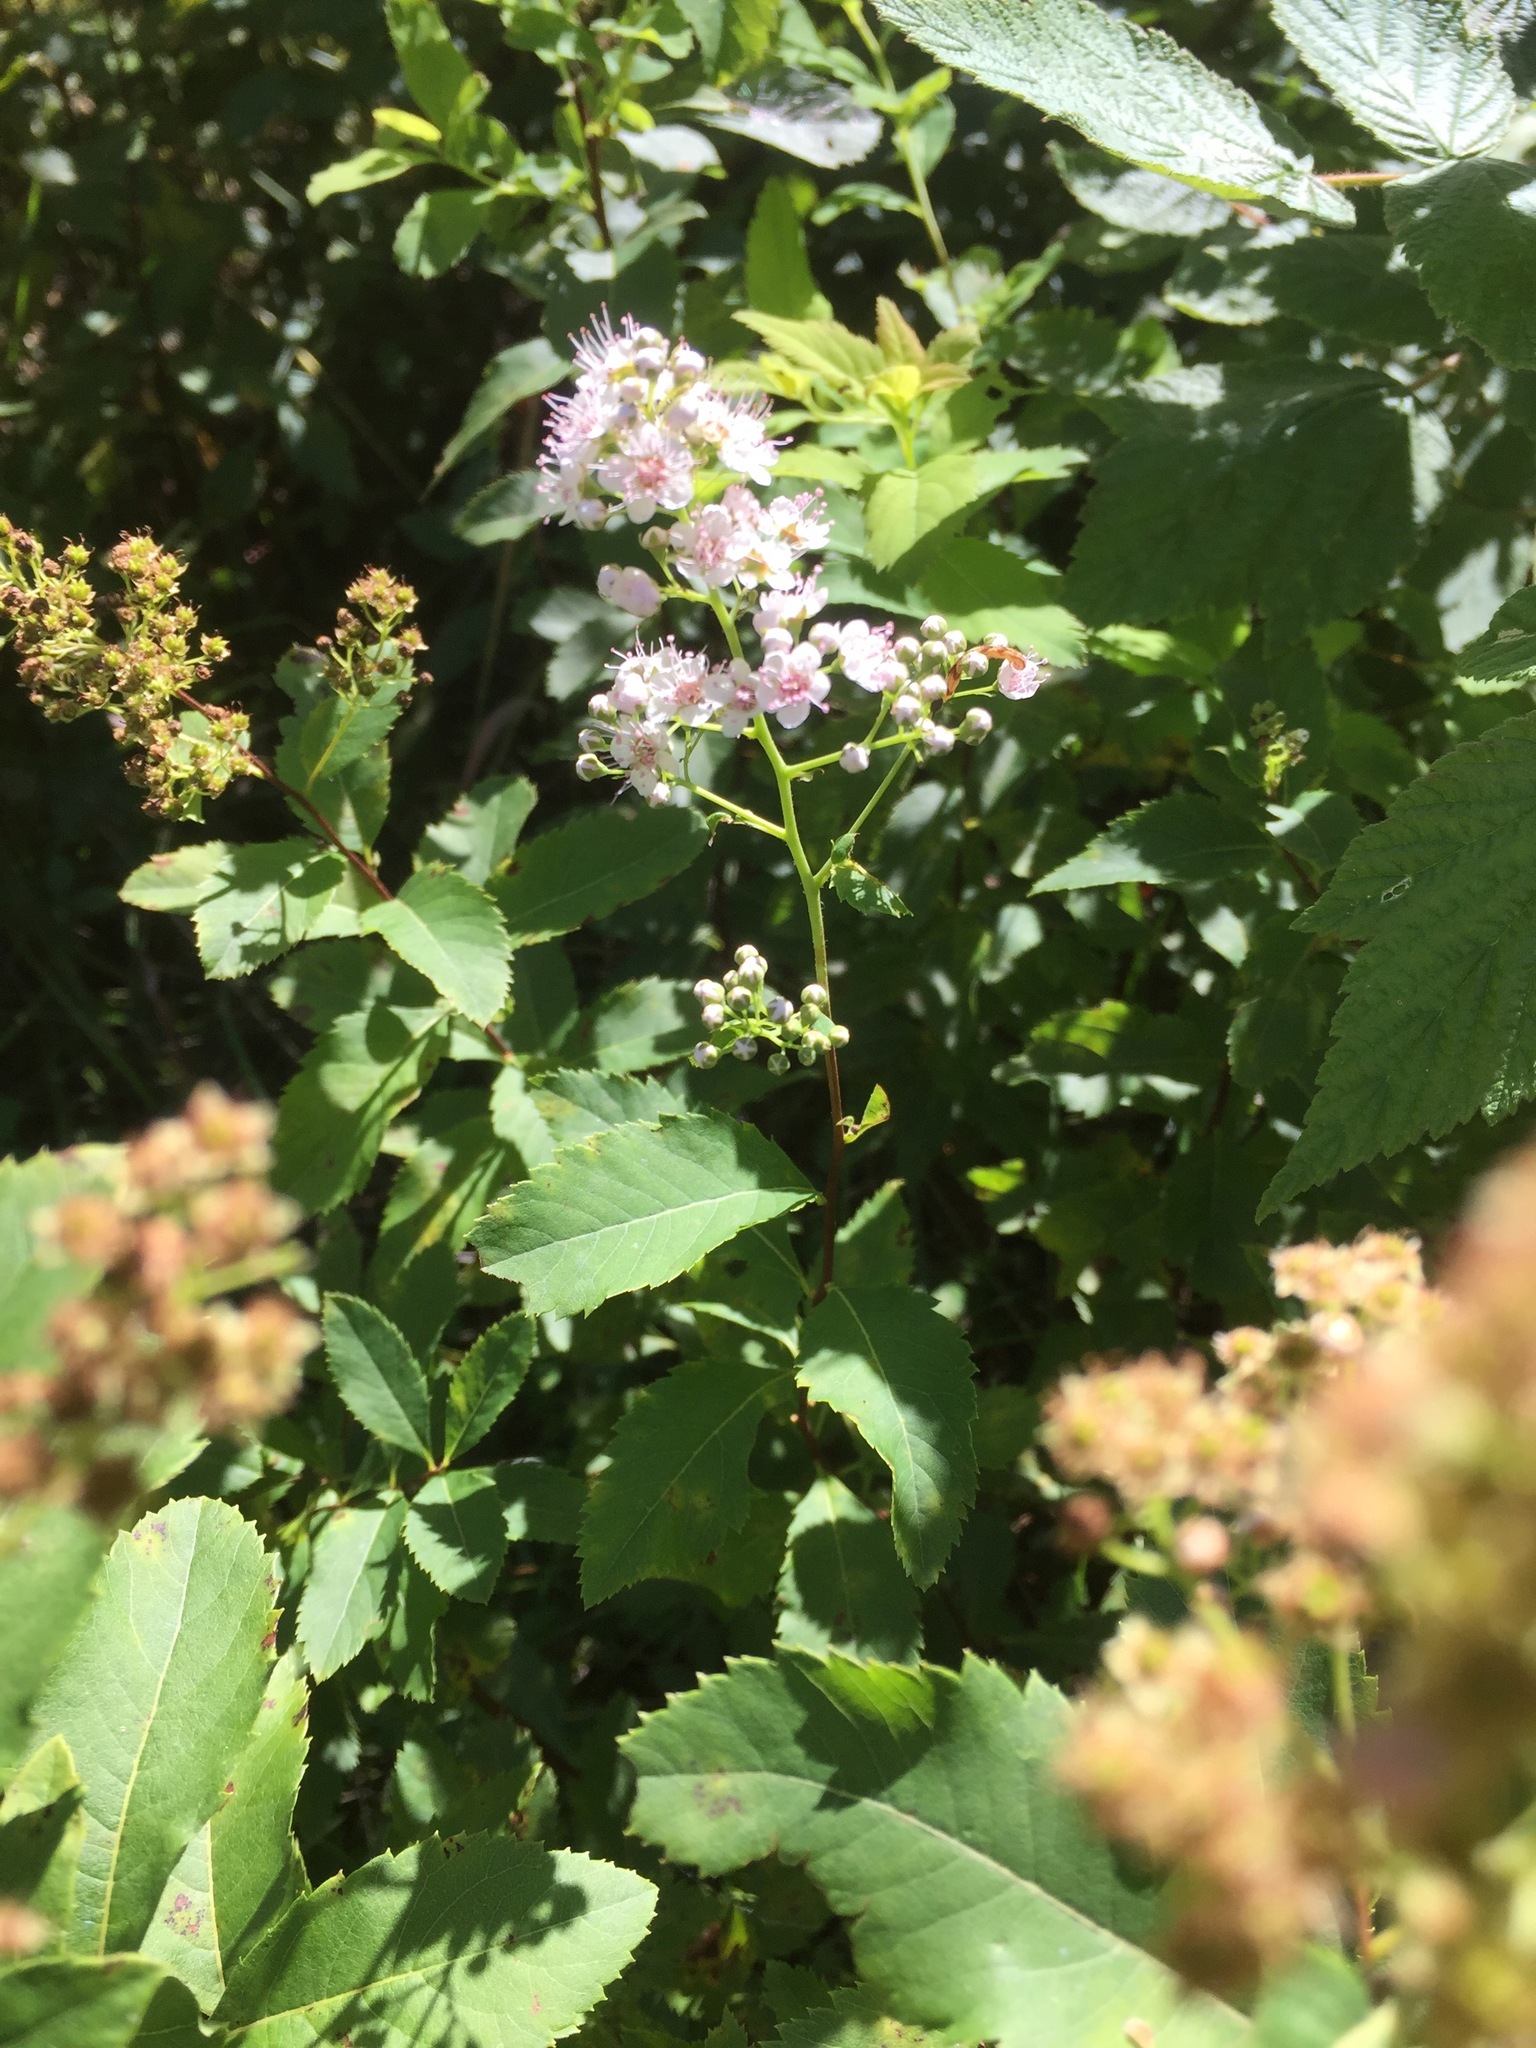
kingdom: Plantae
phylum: Tracheophyta
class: Magnoliopsida
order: Rosales
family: Rosaceae
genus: Spiraea
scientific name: Spiraea alba
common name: Pale bridewort
